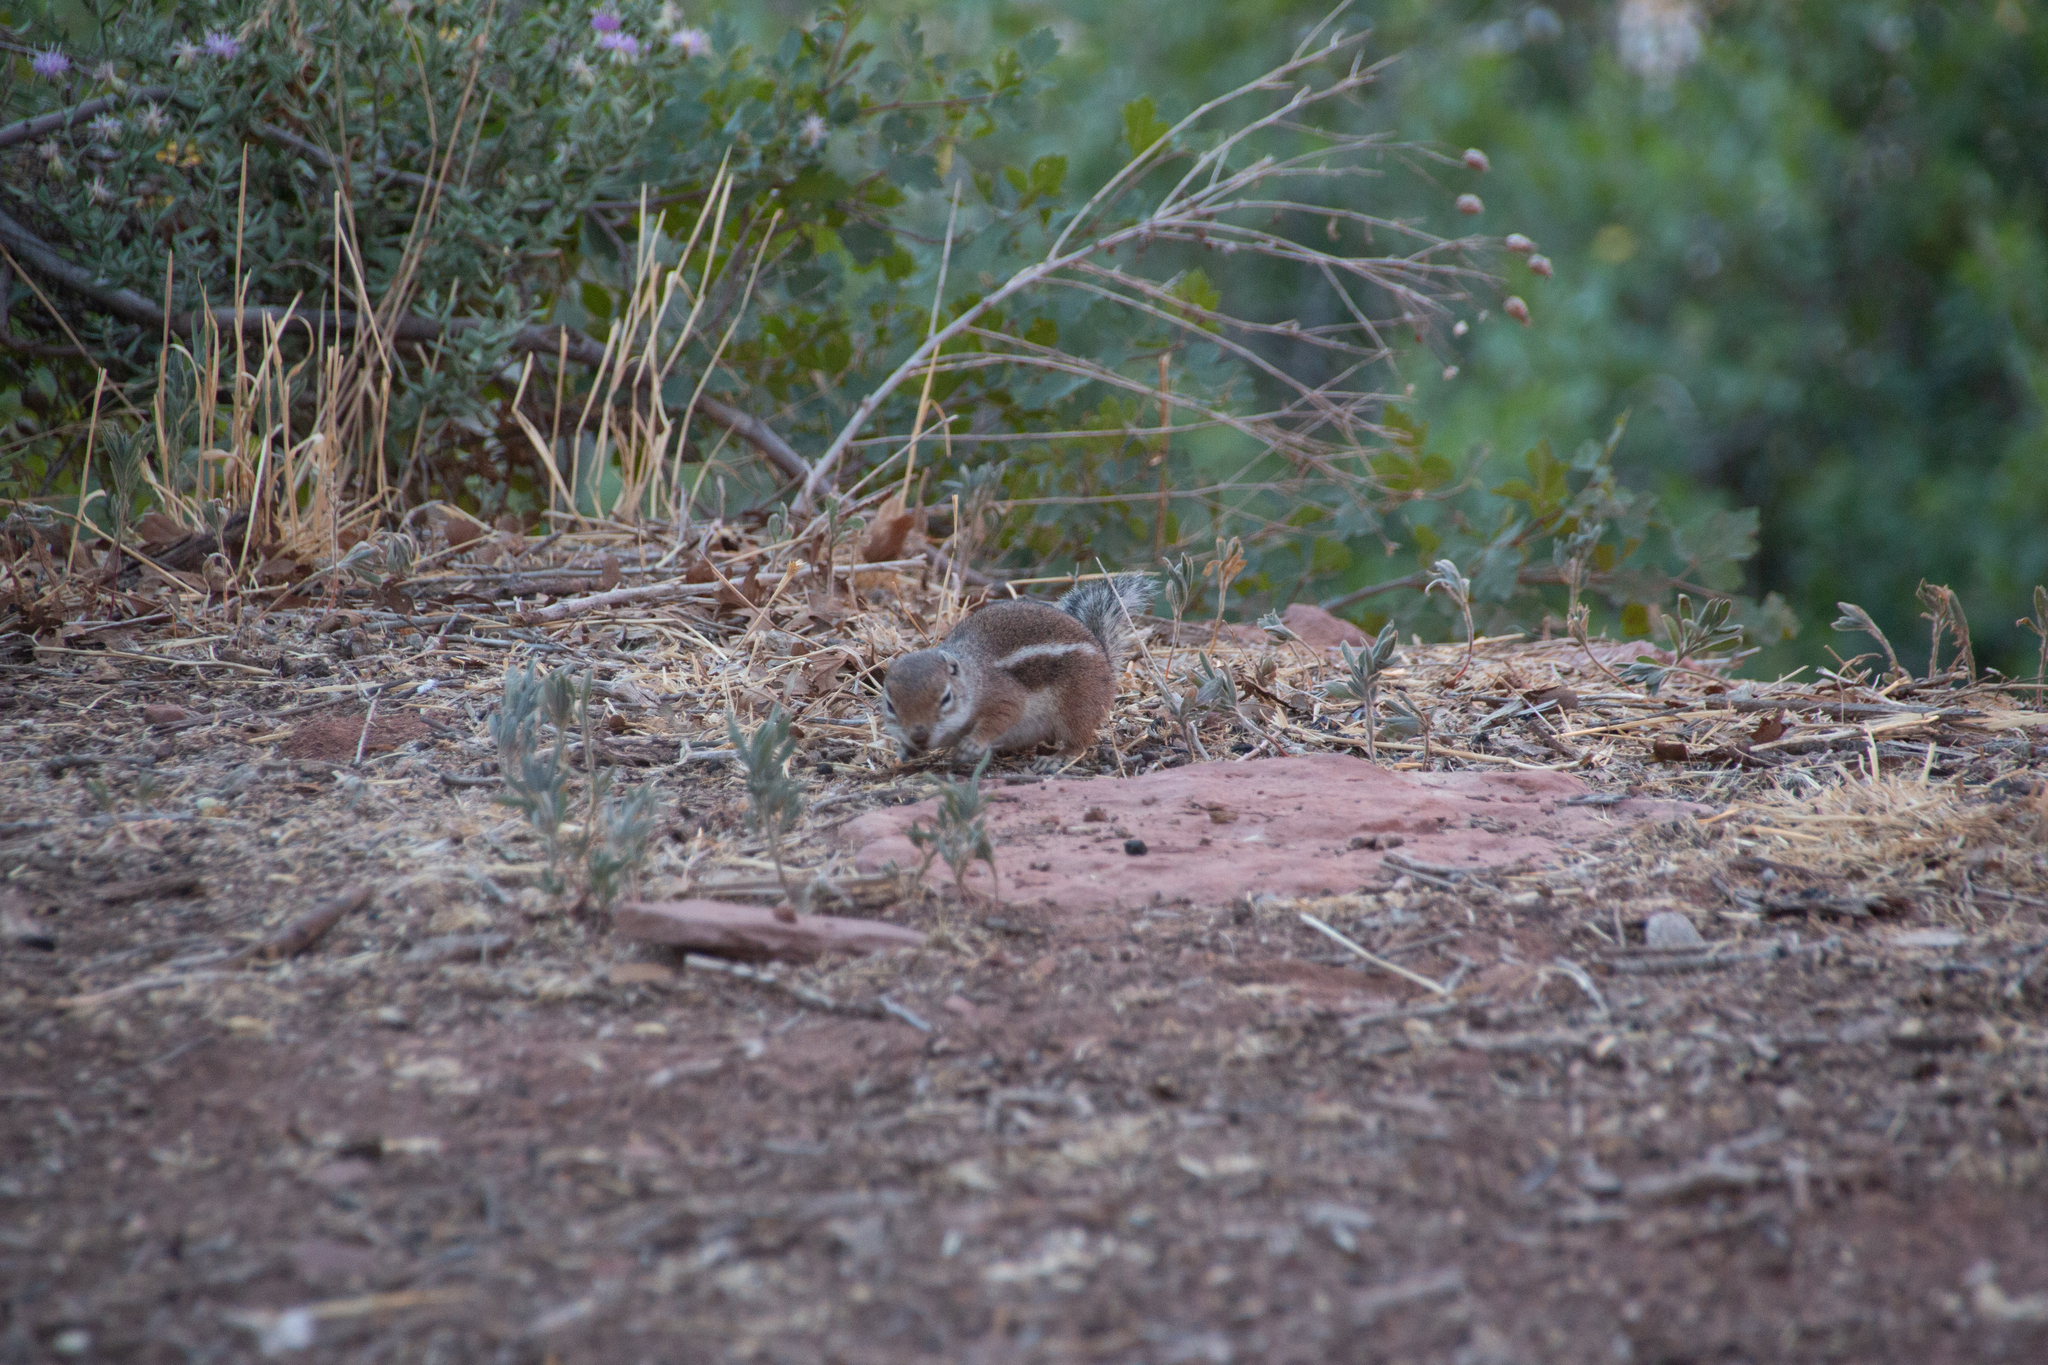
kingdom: Animalia
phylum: Chordata
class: Mammalia
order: Rodentia
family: Sciuridae
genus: Ammospermophilus
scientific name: Ammospermophilus leucurus
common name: White-tailed antelope squirrel
